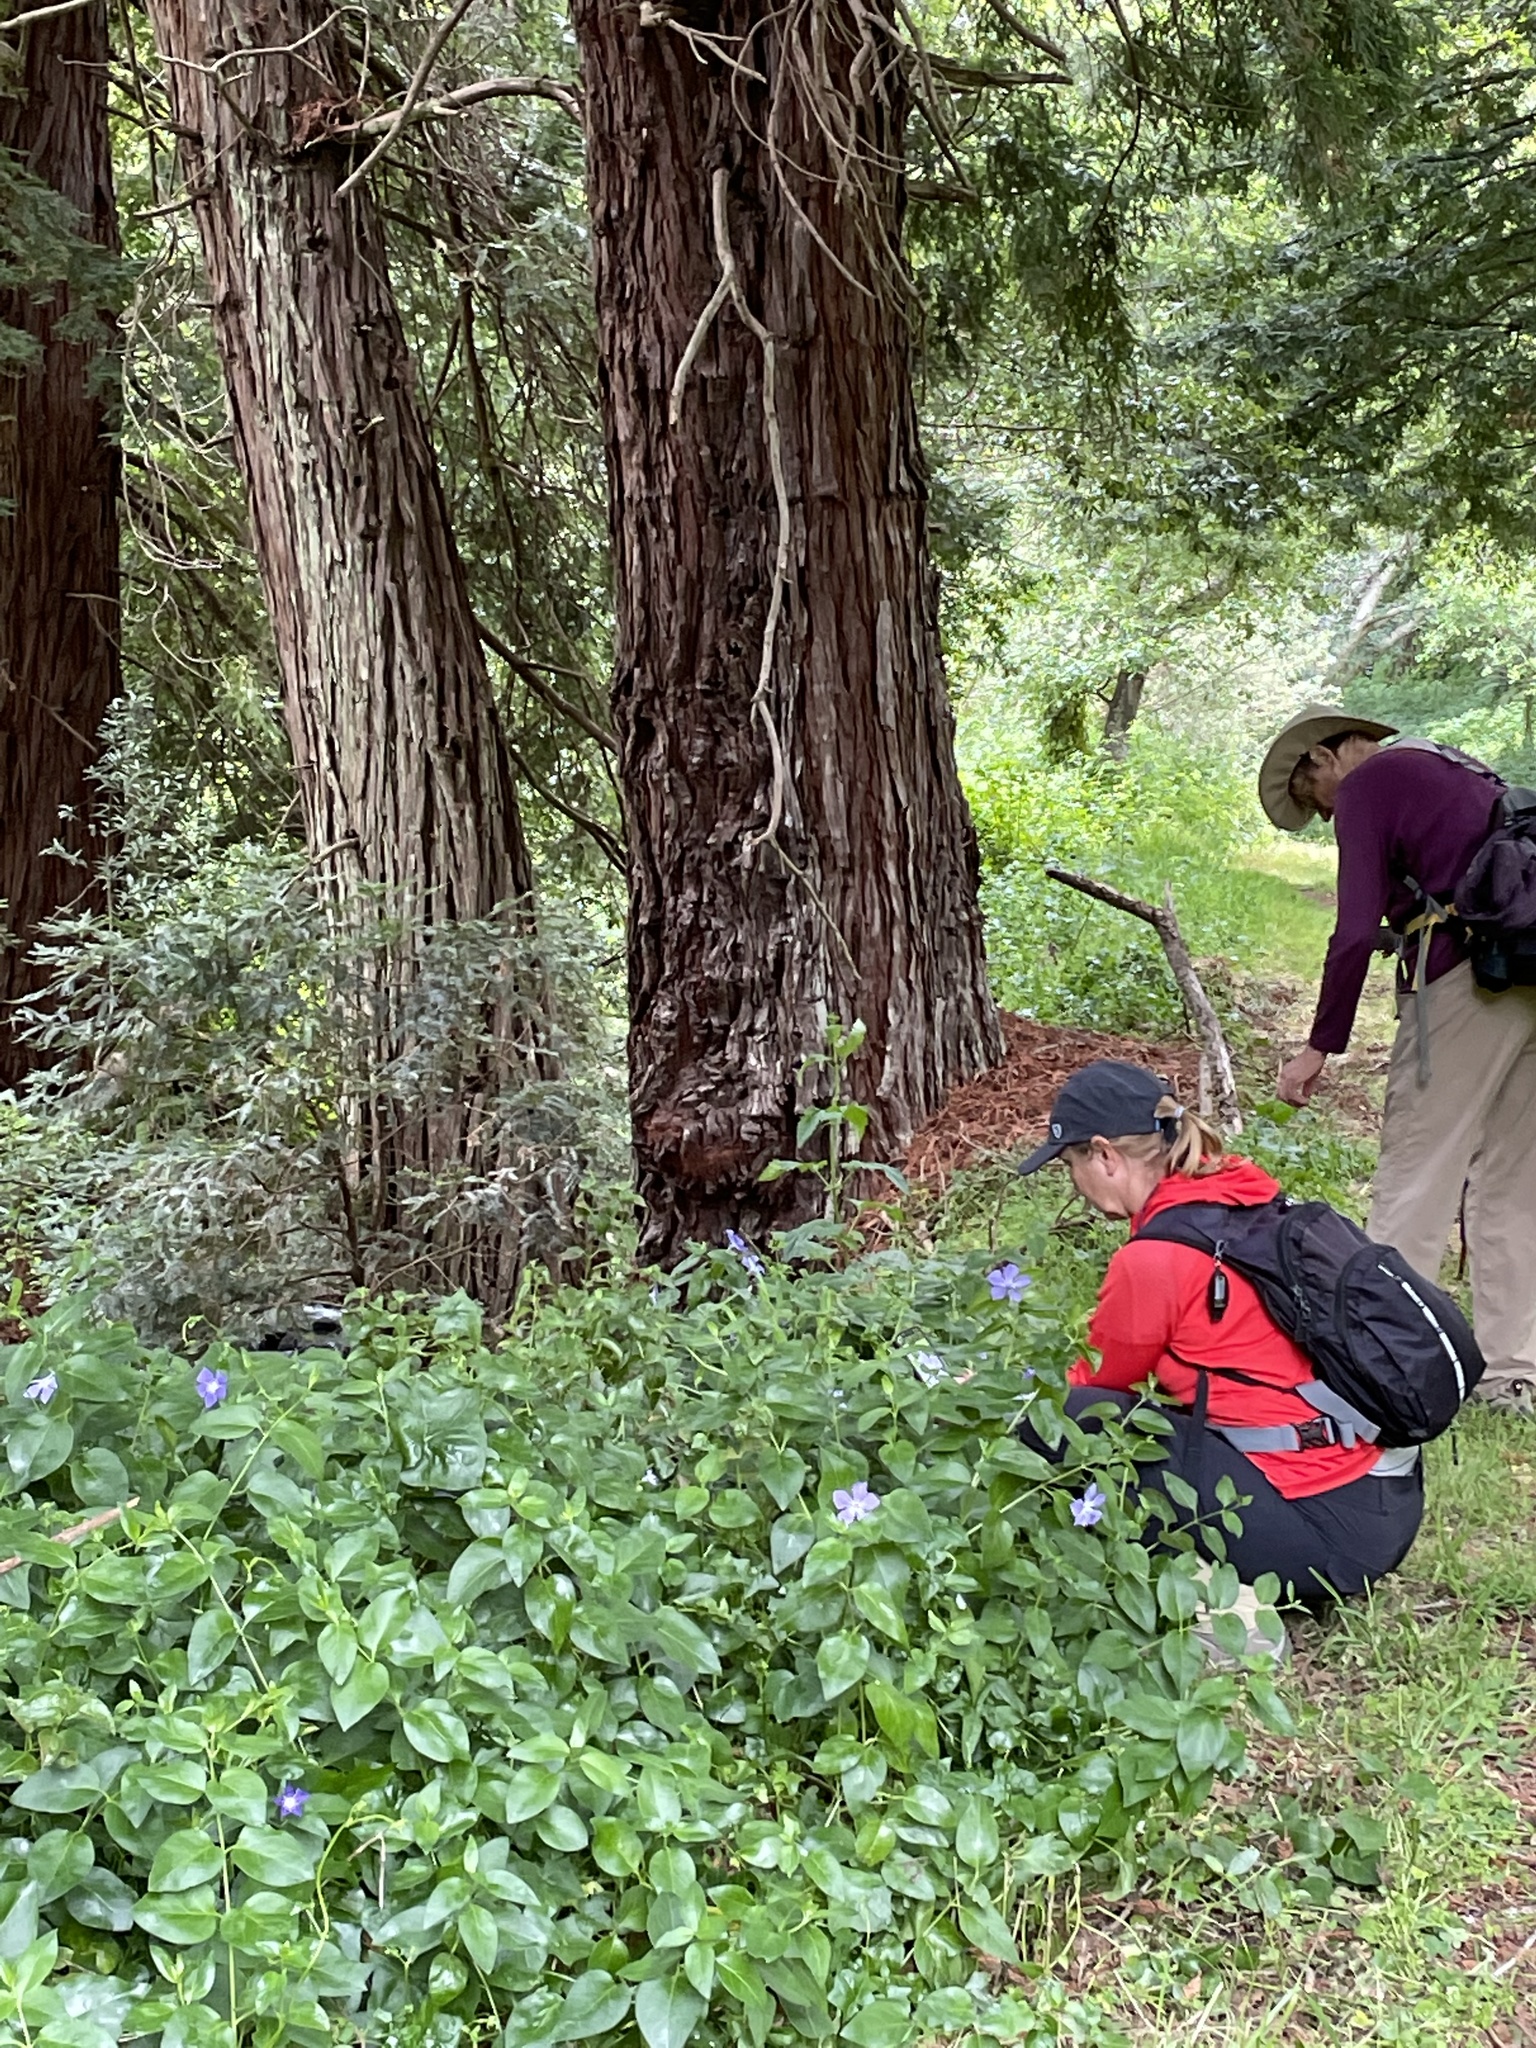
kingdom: Plantae
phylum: Tracheophyta
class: Magnoliopsida
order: Gentianales
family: Apocynaceae
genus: Vinca
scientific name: Vinca major
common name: Greater periwinkle
